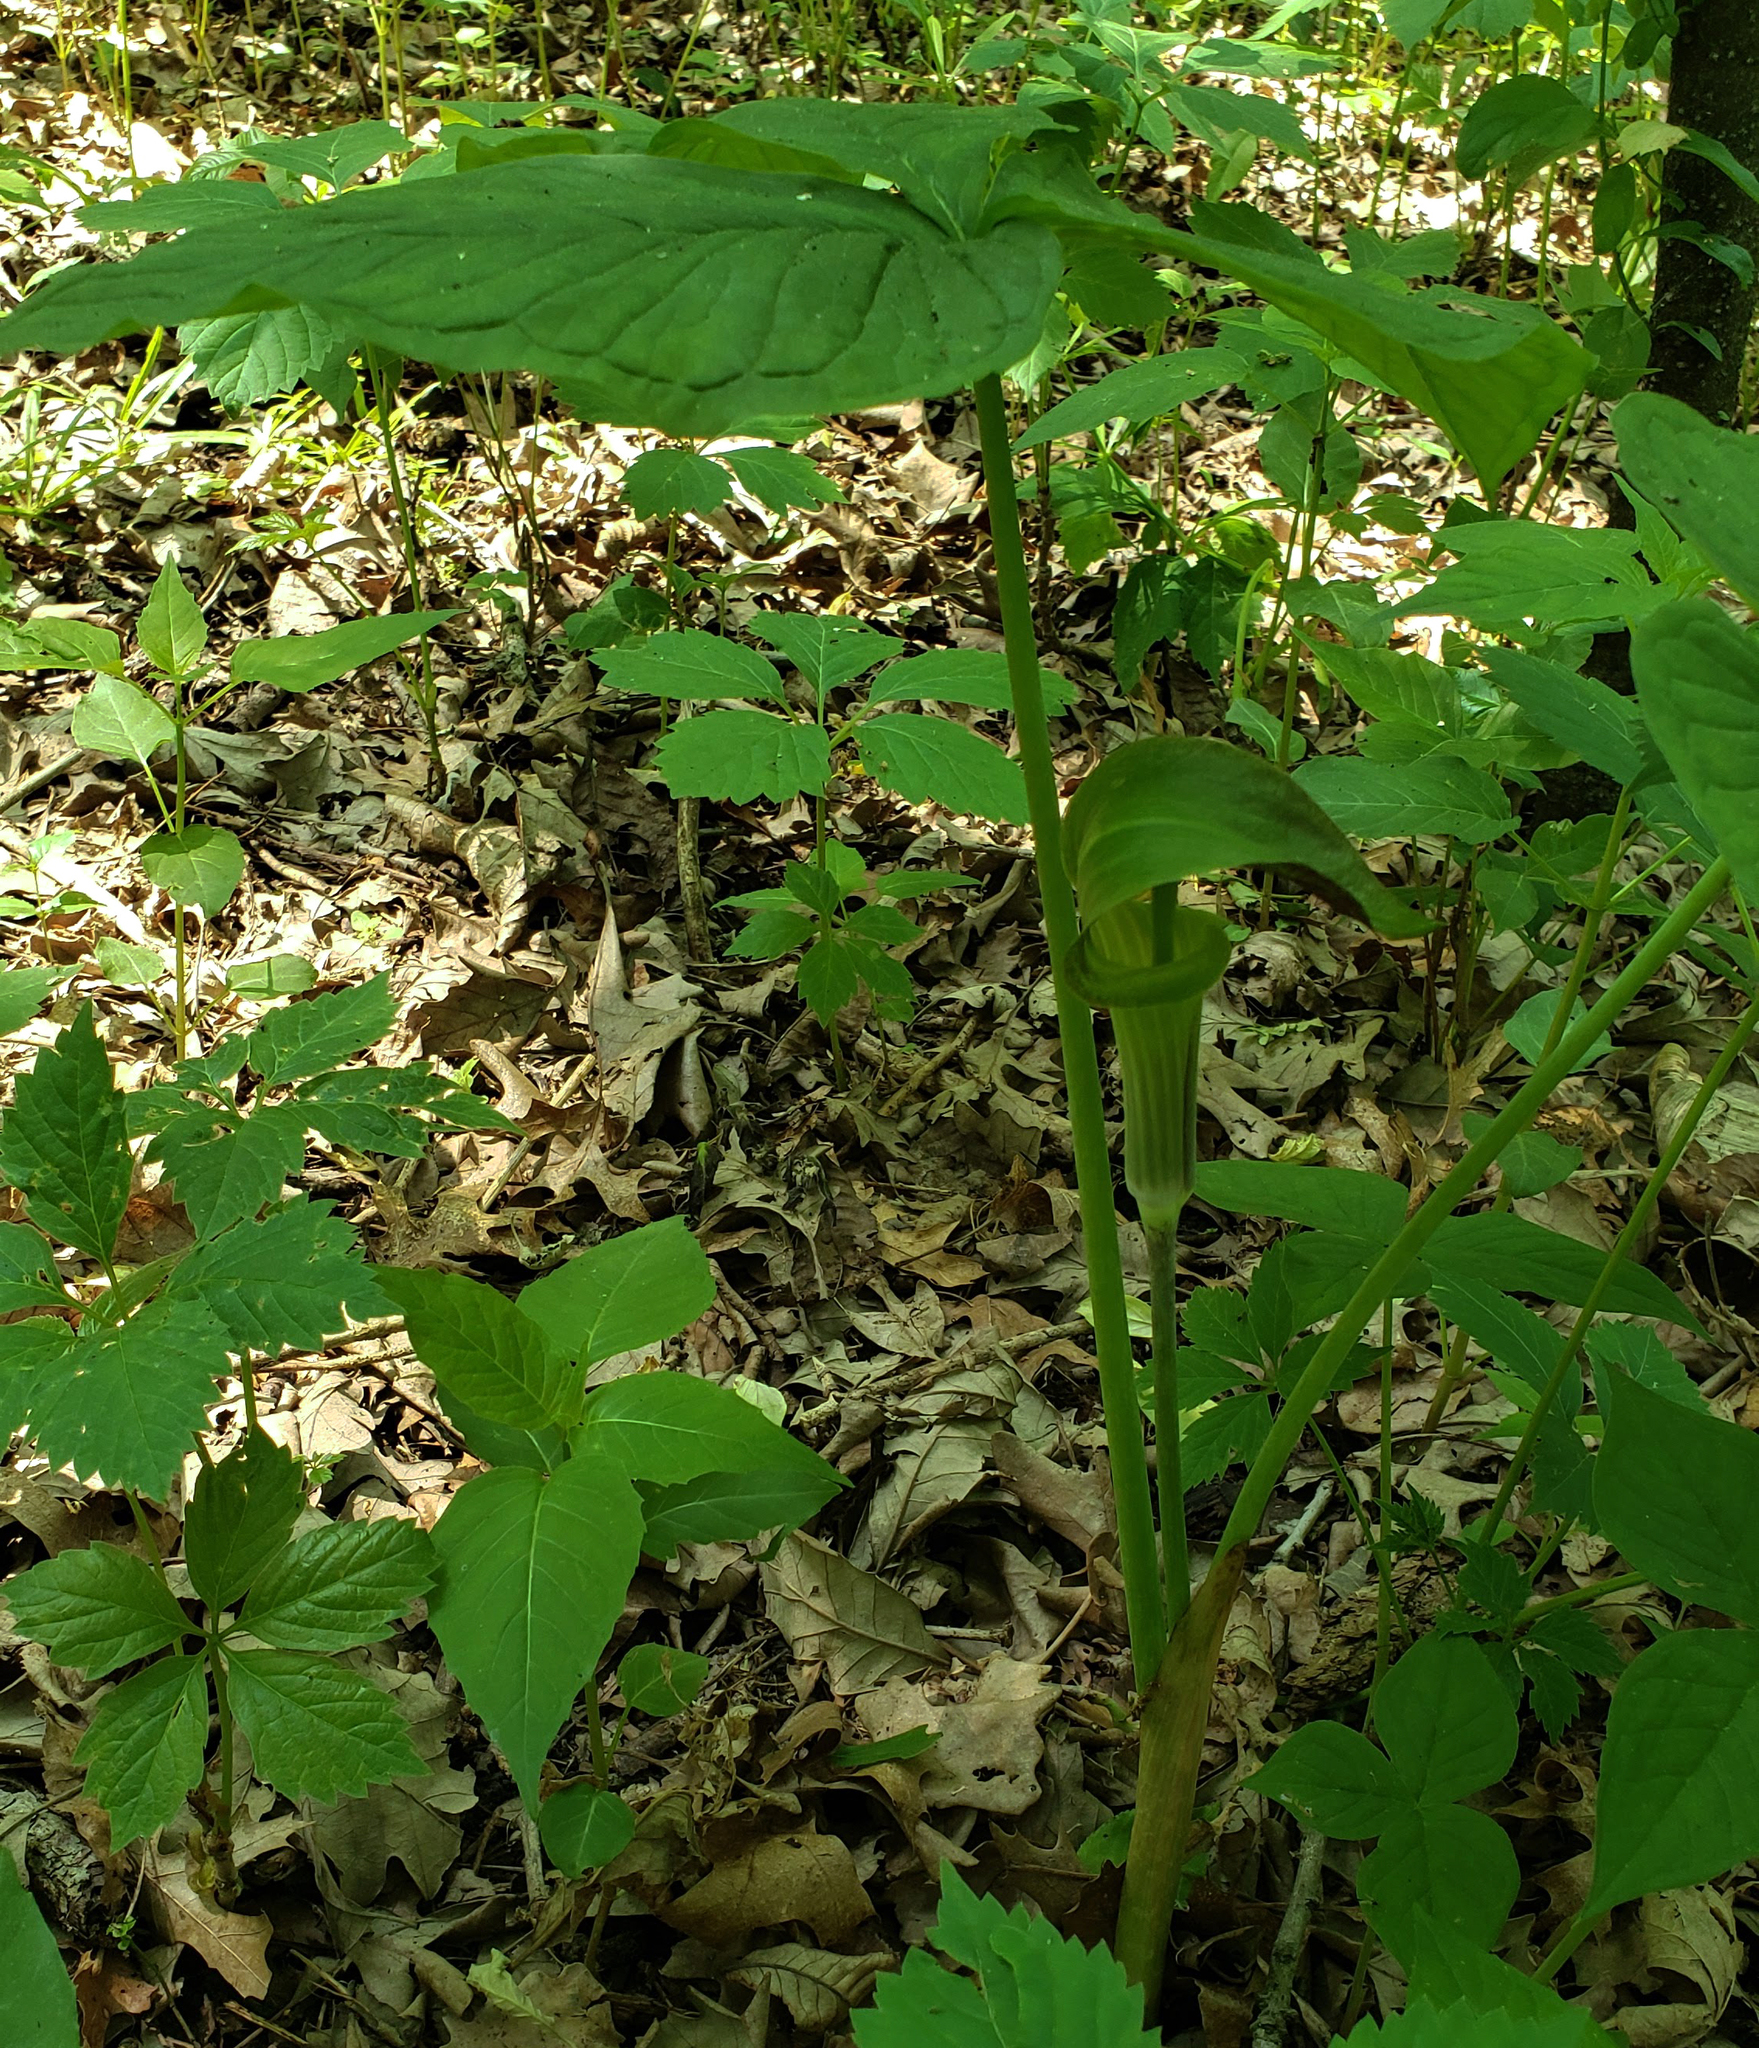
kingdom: Plantae
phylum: Tracheophyta
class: Liliopsida
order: Alismatales
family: Araceae
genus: Arisaema
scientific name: Arisaema triphyllum
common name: Jack-in-the-pulpit
